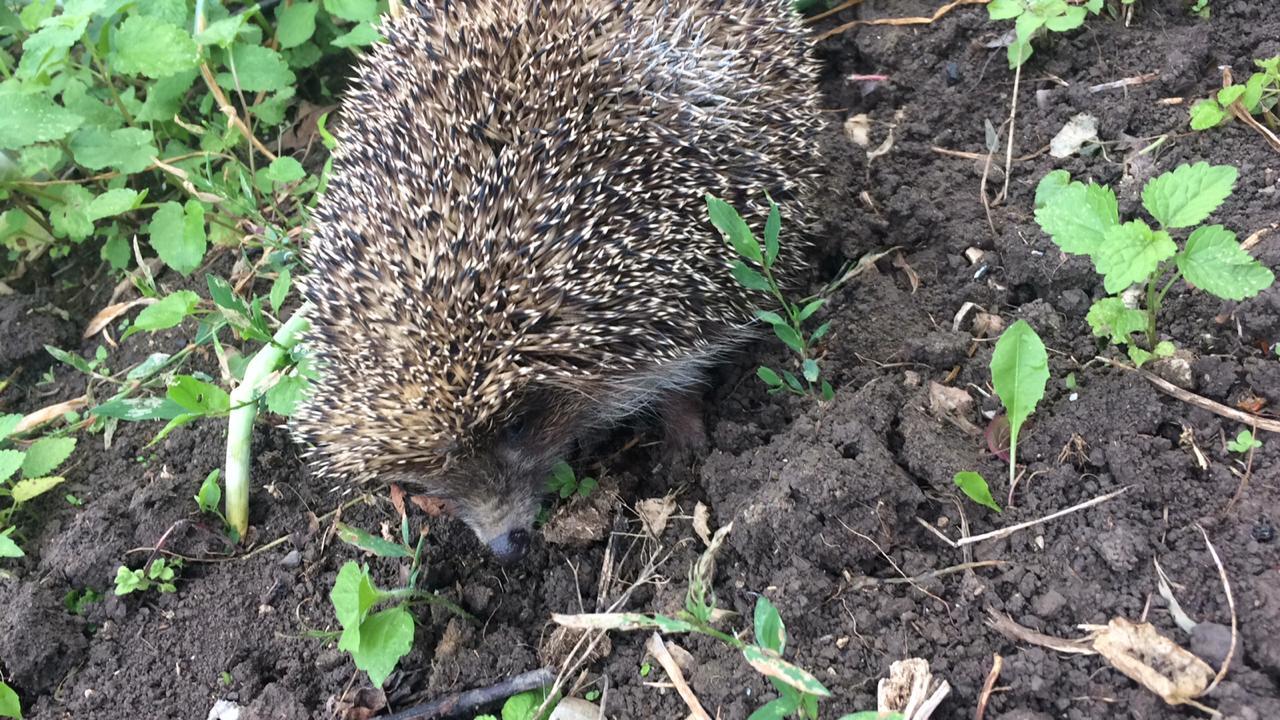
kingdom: Animalia
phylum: Chordata
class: Mammalia
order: Erinaceomorpha
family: Erinaceidae
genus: Erinaceus
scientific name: Erinaceus roumanicus
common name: Northern white-breasted hedgehog
